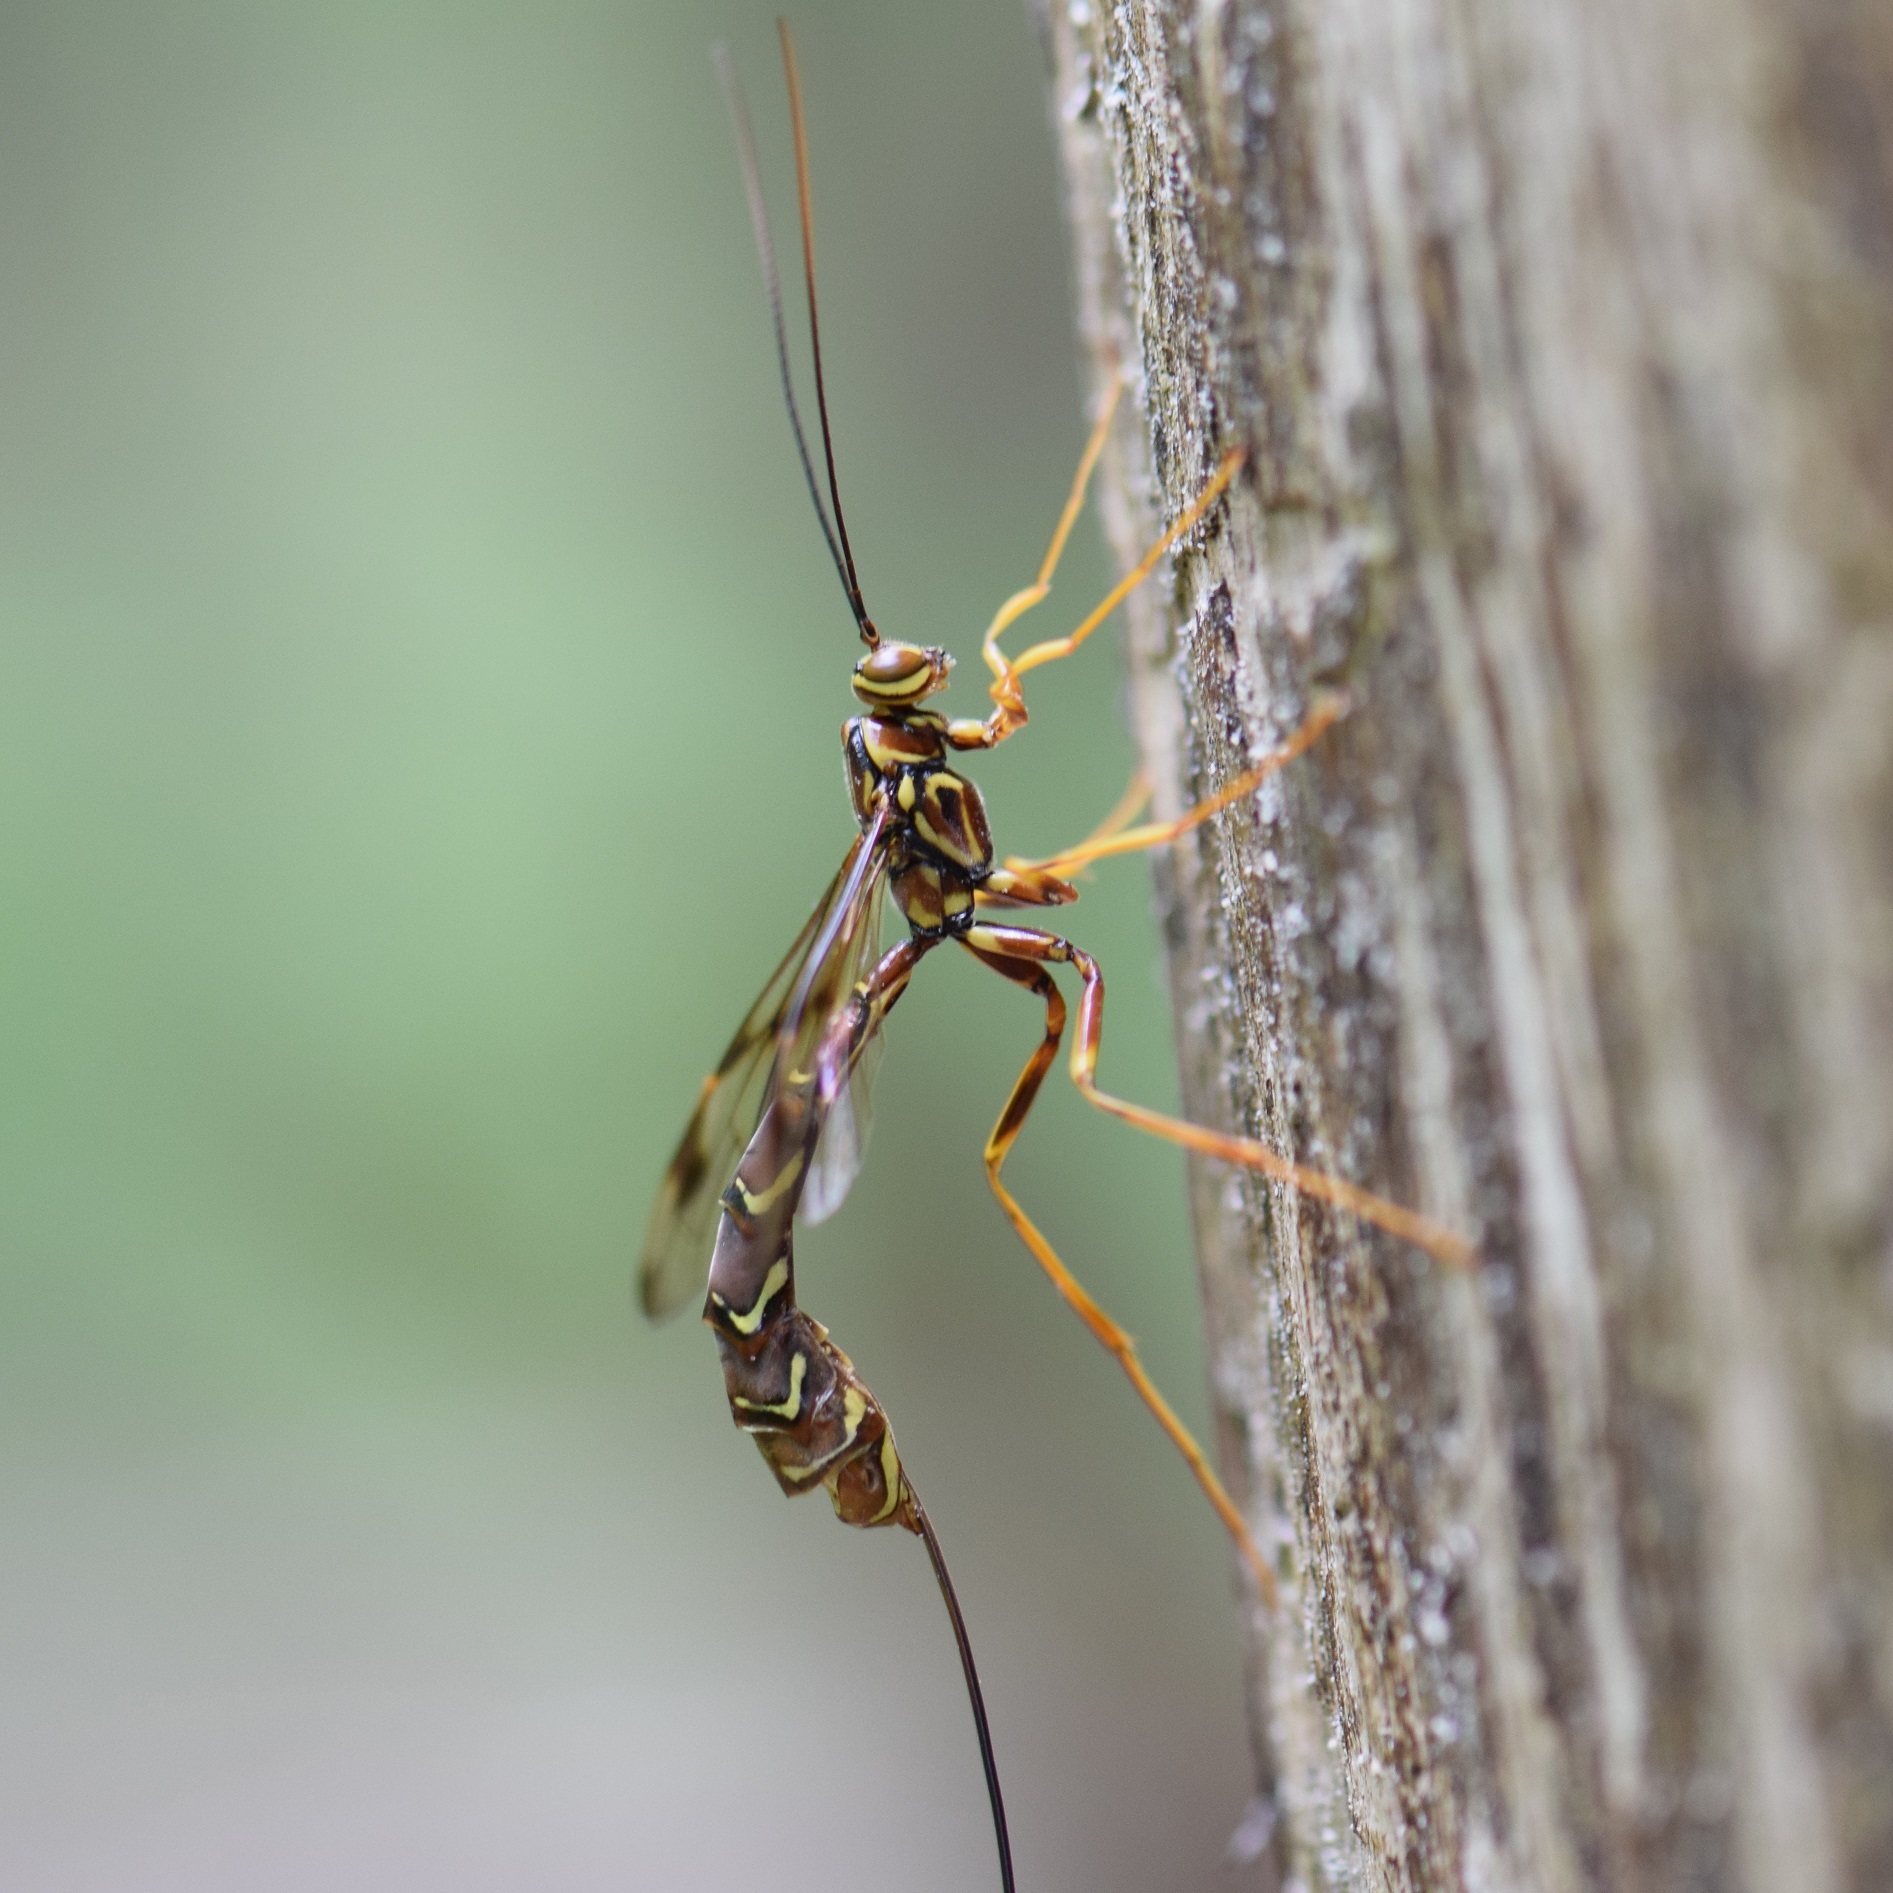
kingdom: Animalia
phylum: Arthropoda
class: Insecta
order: Hymenoptera
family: Ichneumonidae
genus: Megarhyssa
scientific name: Megarhyssa macrura
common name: Long-tailed giant ichneumonid wasp
